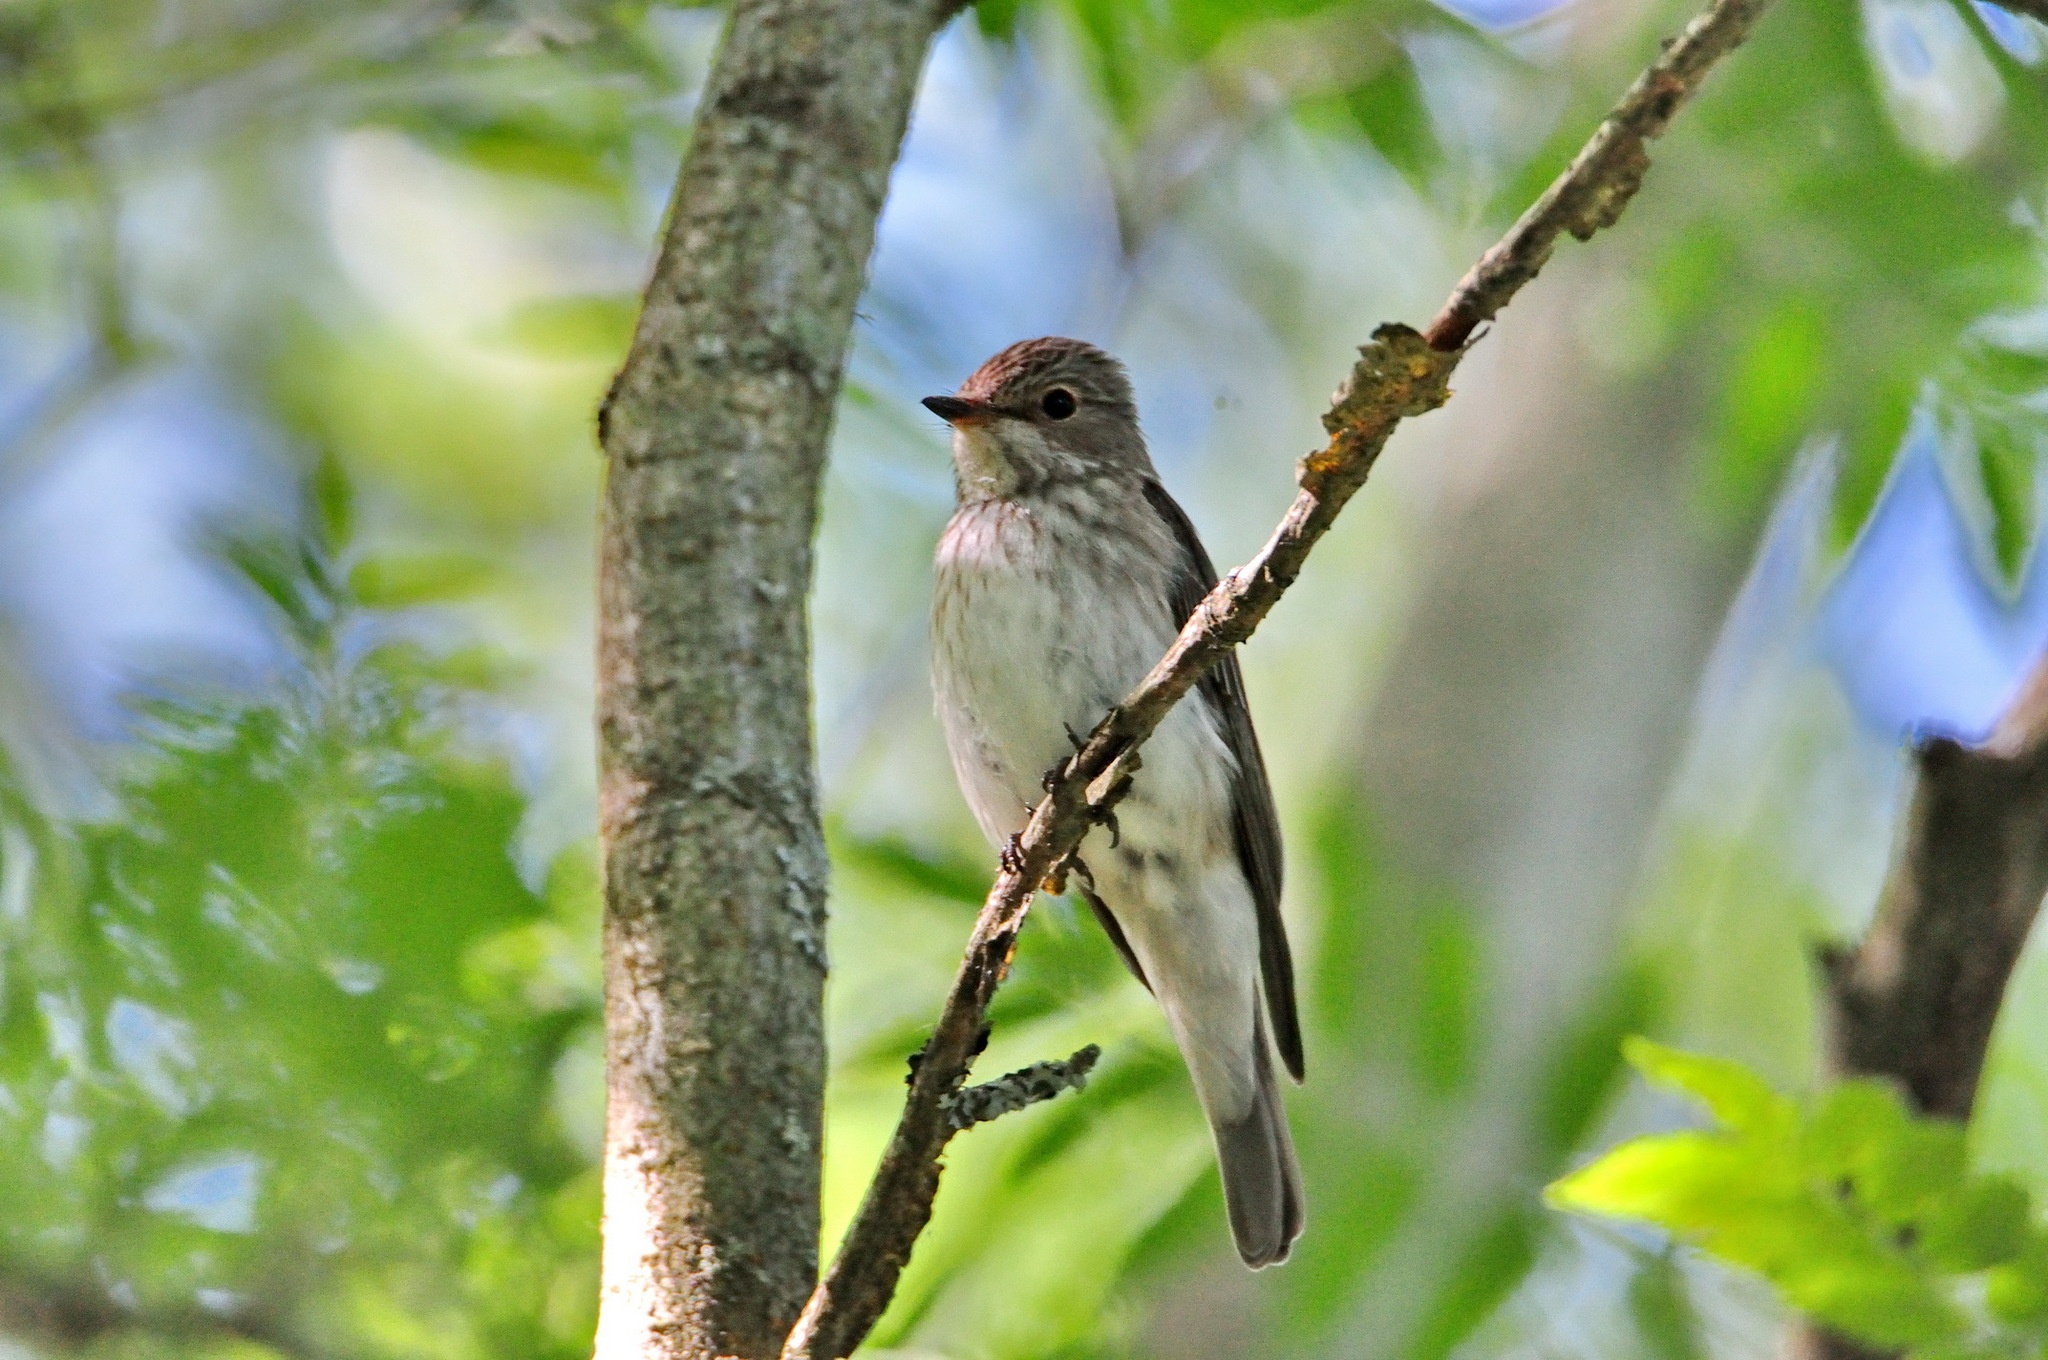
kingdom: Animalia
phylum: Chordata
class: Aves
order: Passeriformes
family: Muscicapidae
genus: Muscicapa
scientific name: Muscicapa striata
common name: Spotted flycatcher
